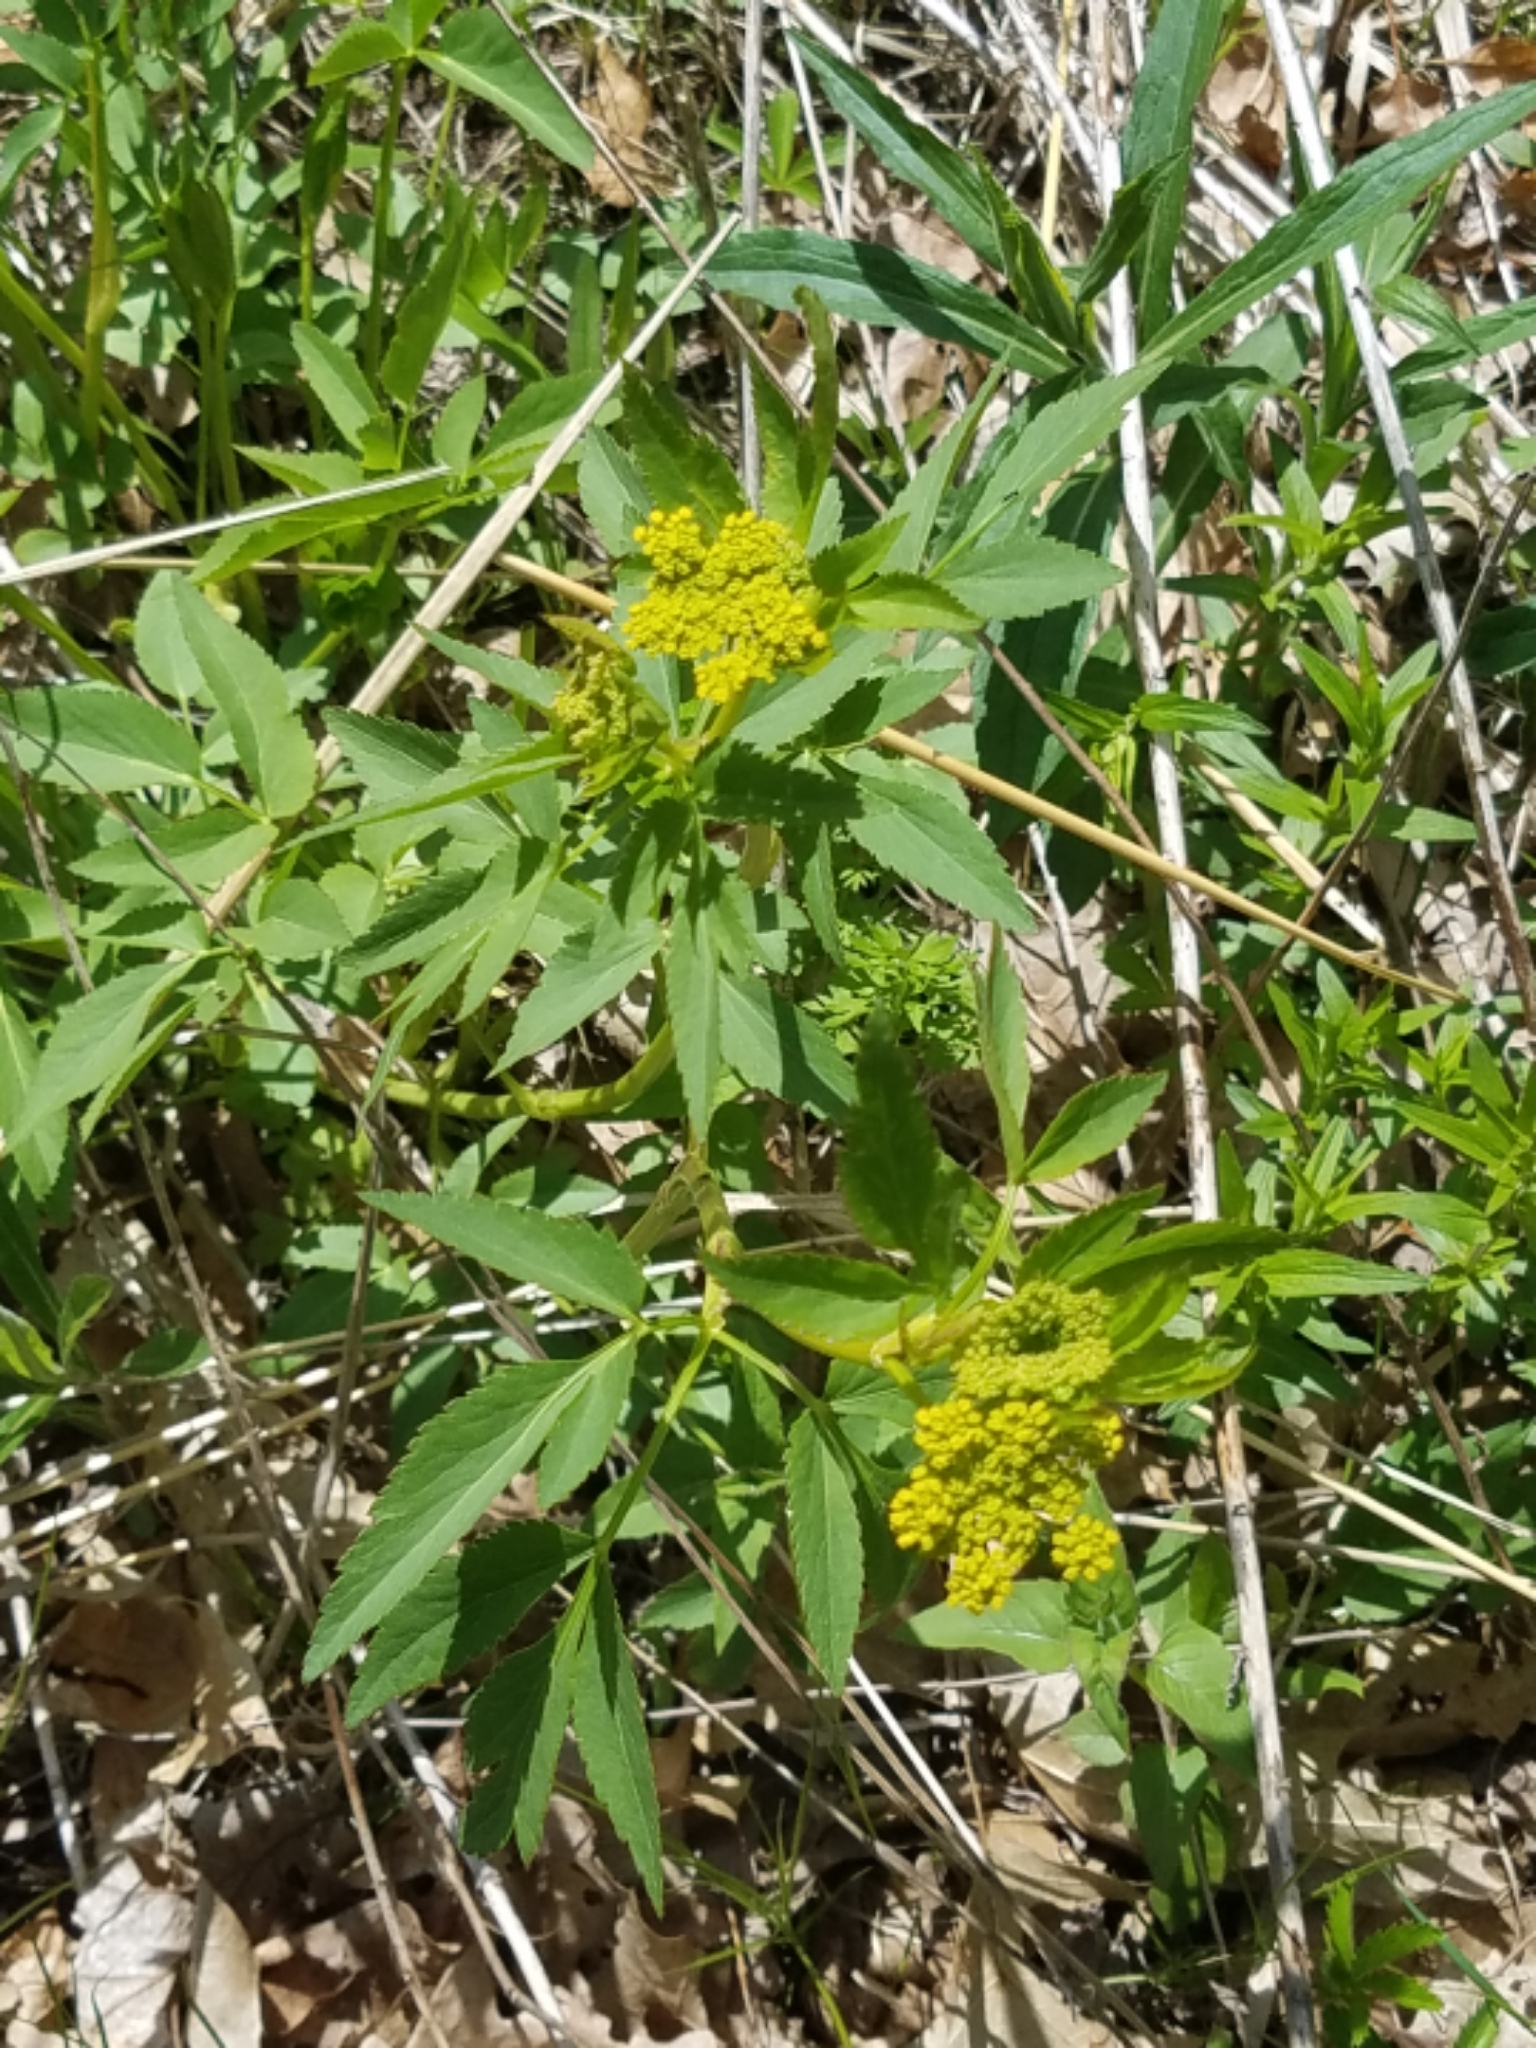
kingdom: Plantae
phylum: Tracheophyta
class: Magnoliopsida
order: Apiales
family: Apiaceae
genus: Zizia
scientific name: Zizia aurea
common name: Golden alexanders
